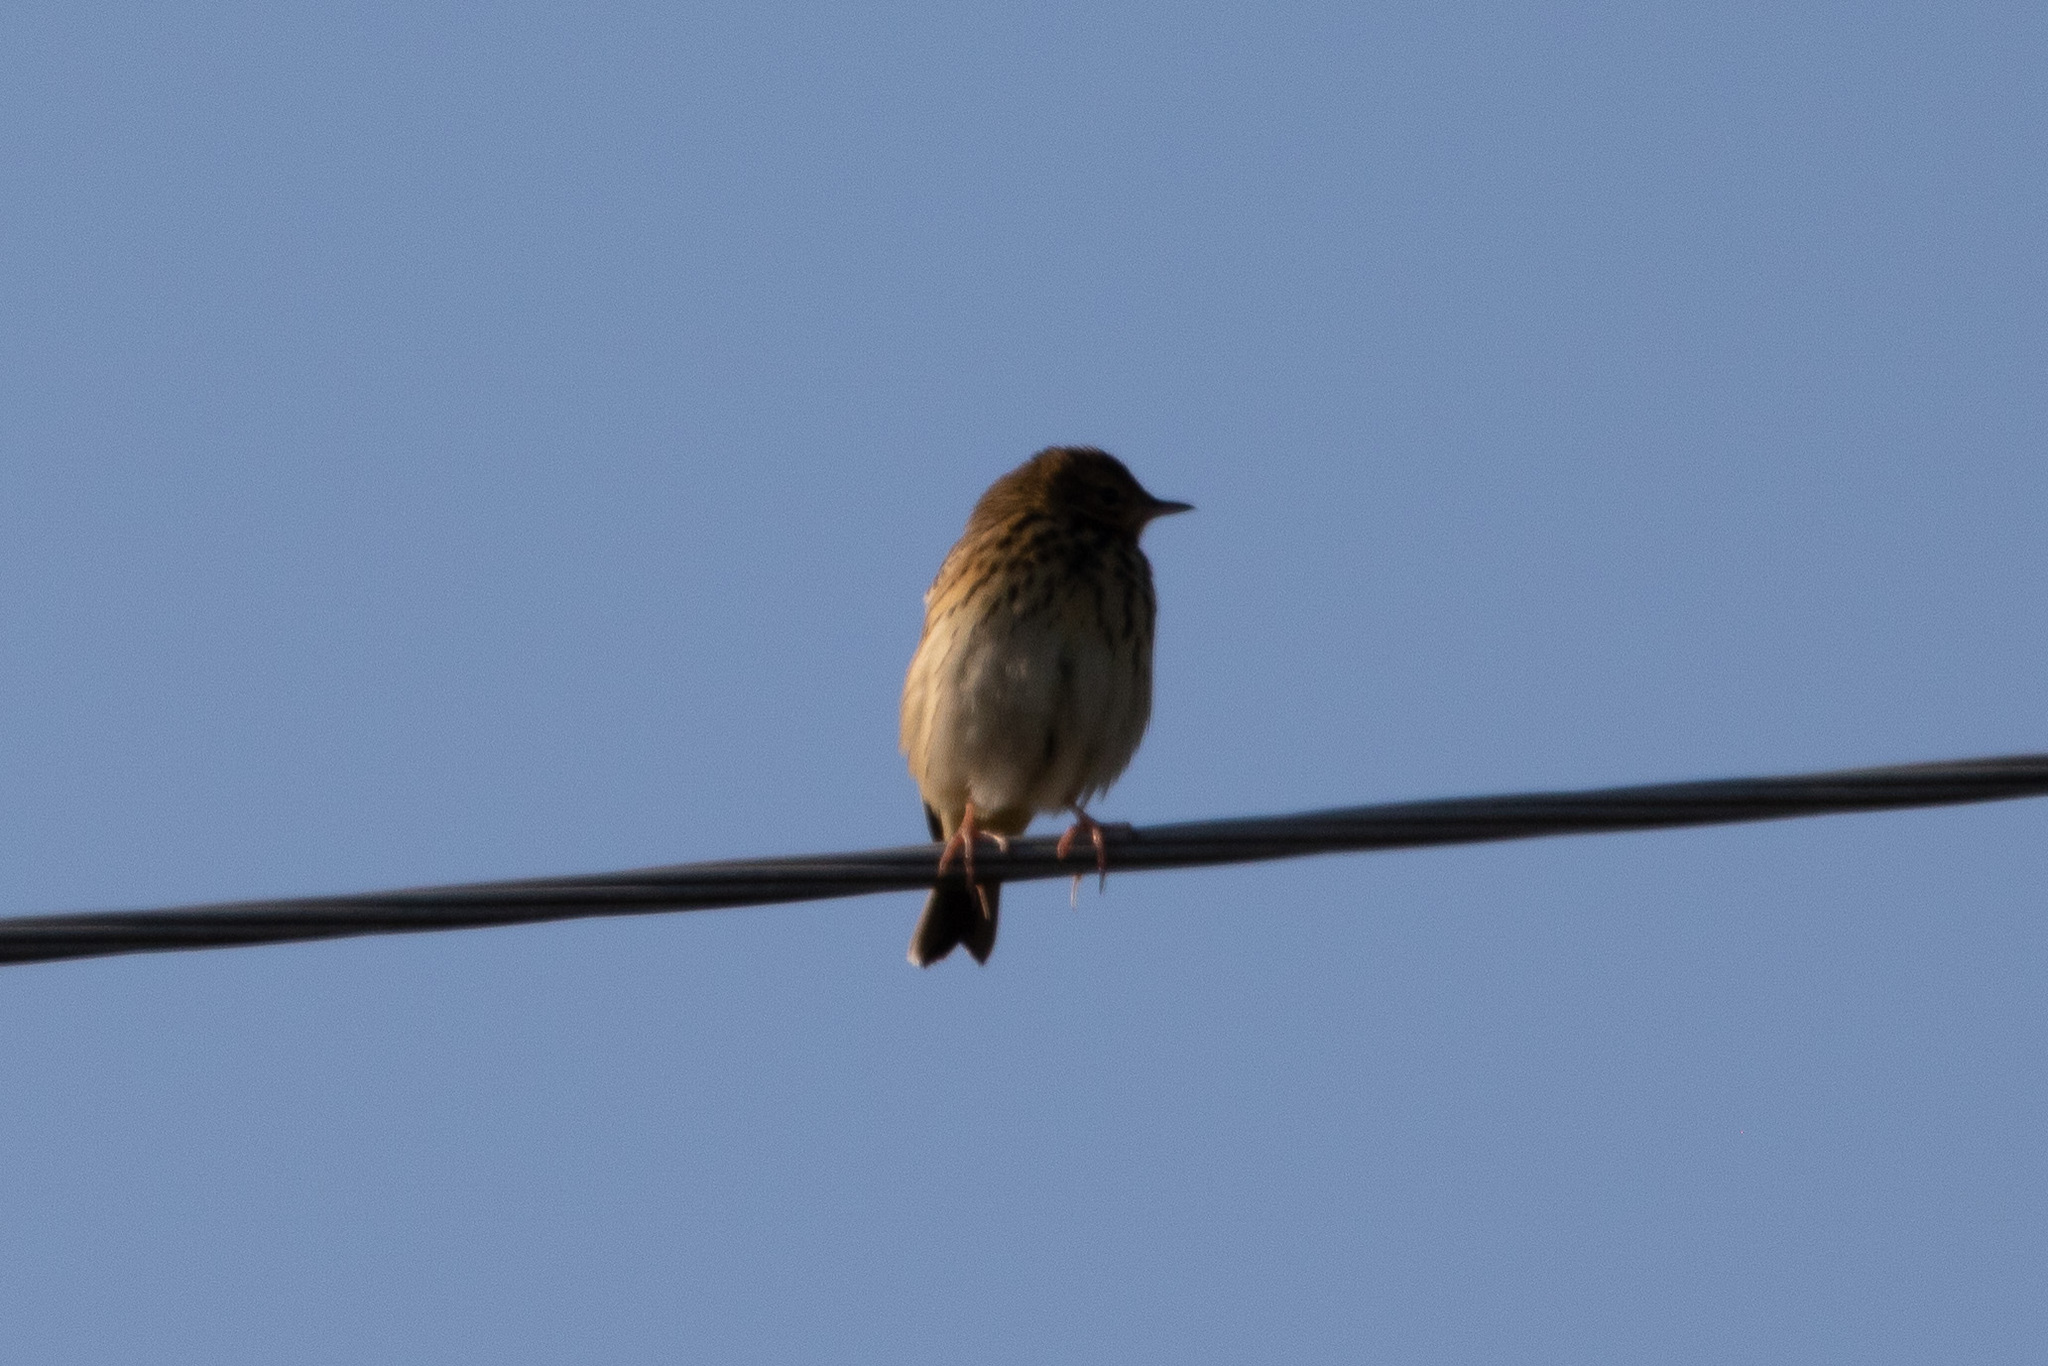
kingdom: Animalia
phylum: Chordata
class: Aves
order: Passeriformes
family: Motacillidae
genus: Anthus
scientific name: Anthus trivialis
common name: Tree pipit
